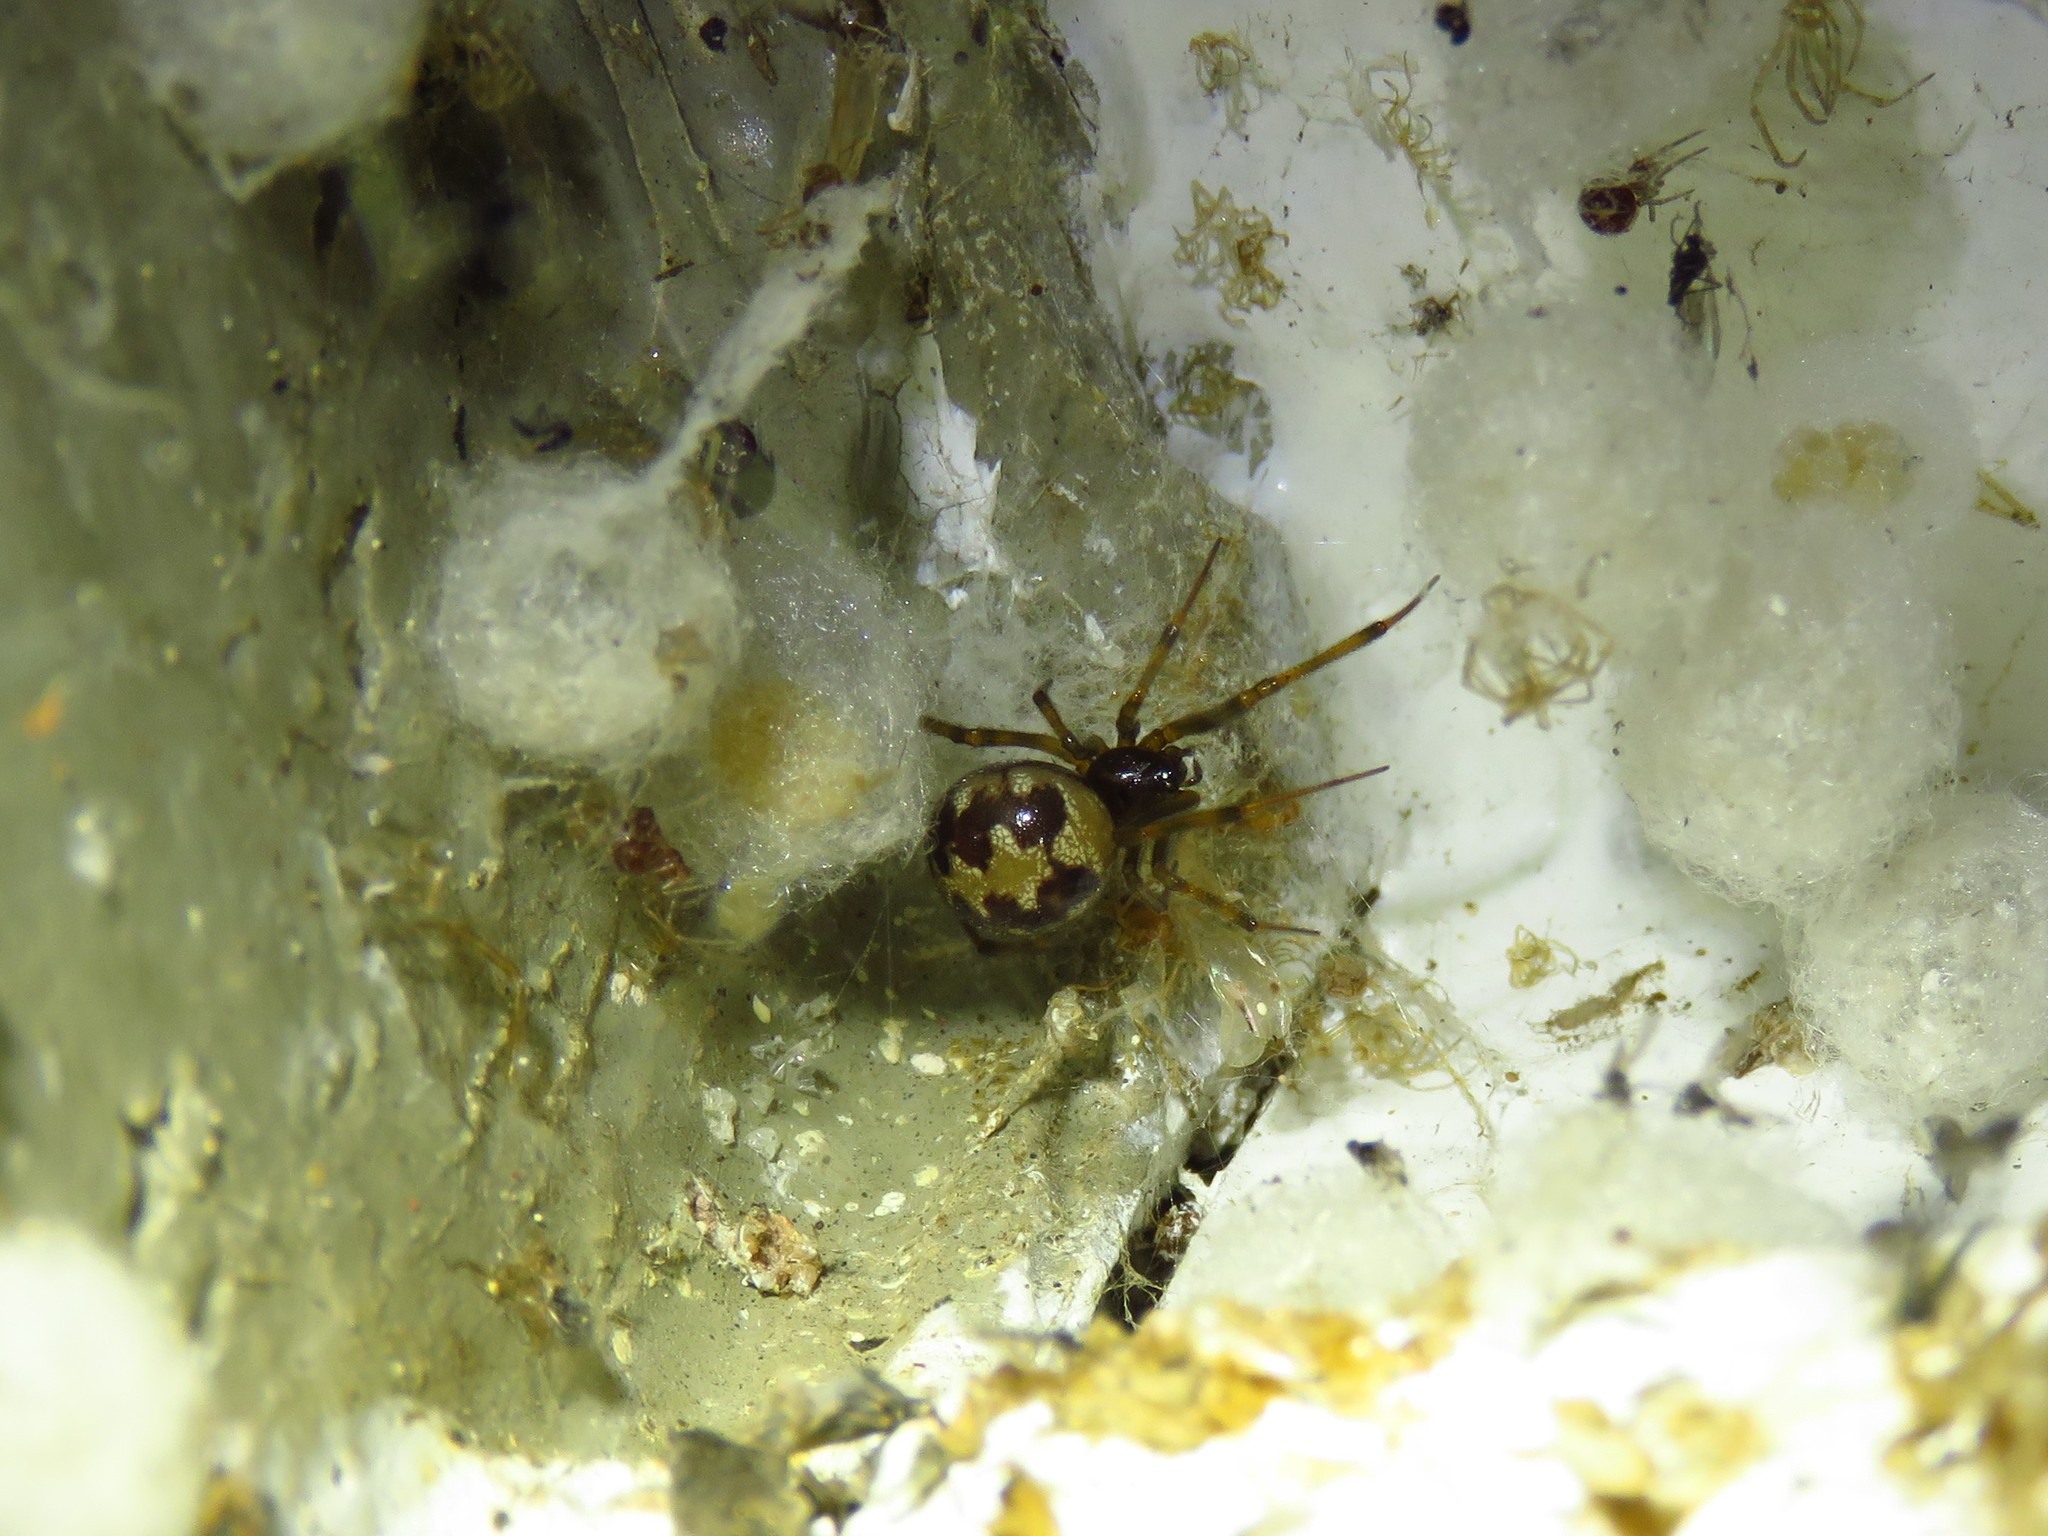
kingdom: Animalia
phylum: Arthropoda
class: Arachnida
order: Araneae
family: Theridiidae
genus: Steatoda
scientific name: Steatoda triangulosa
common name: Triangulate bud spider
